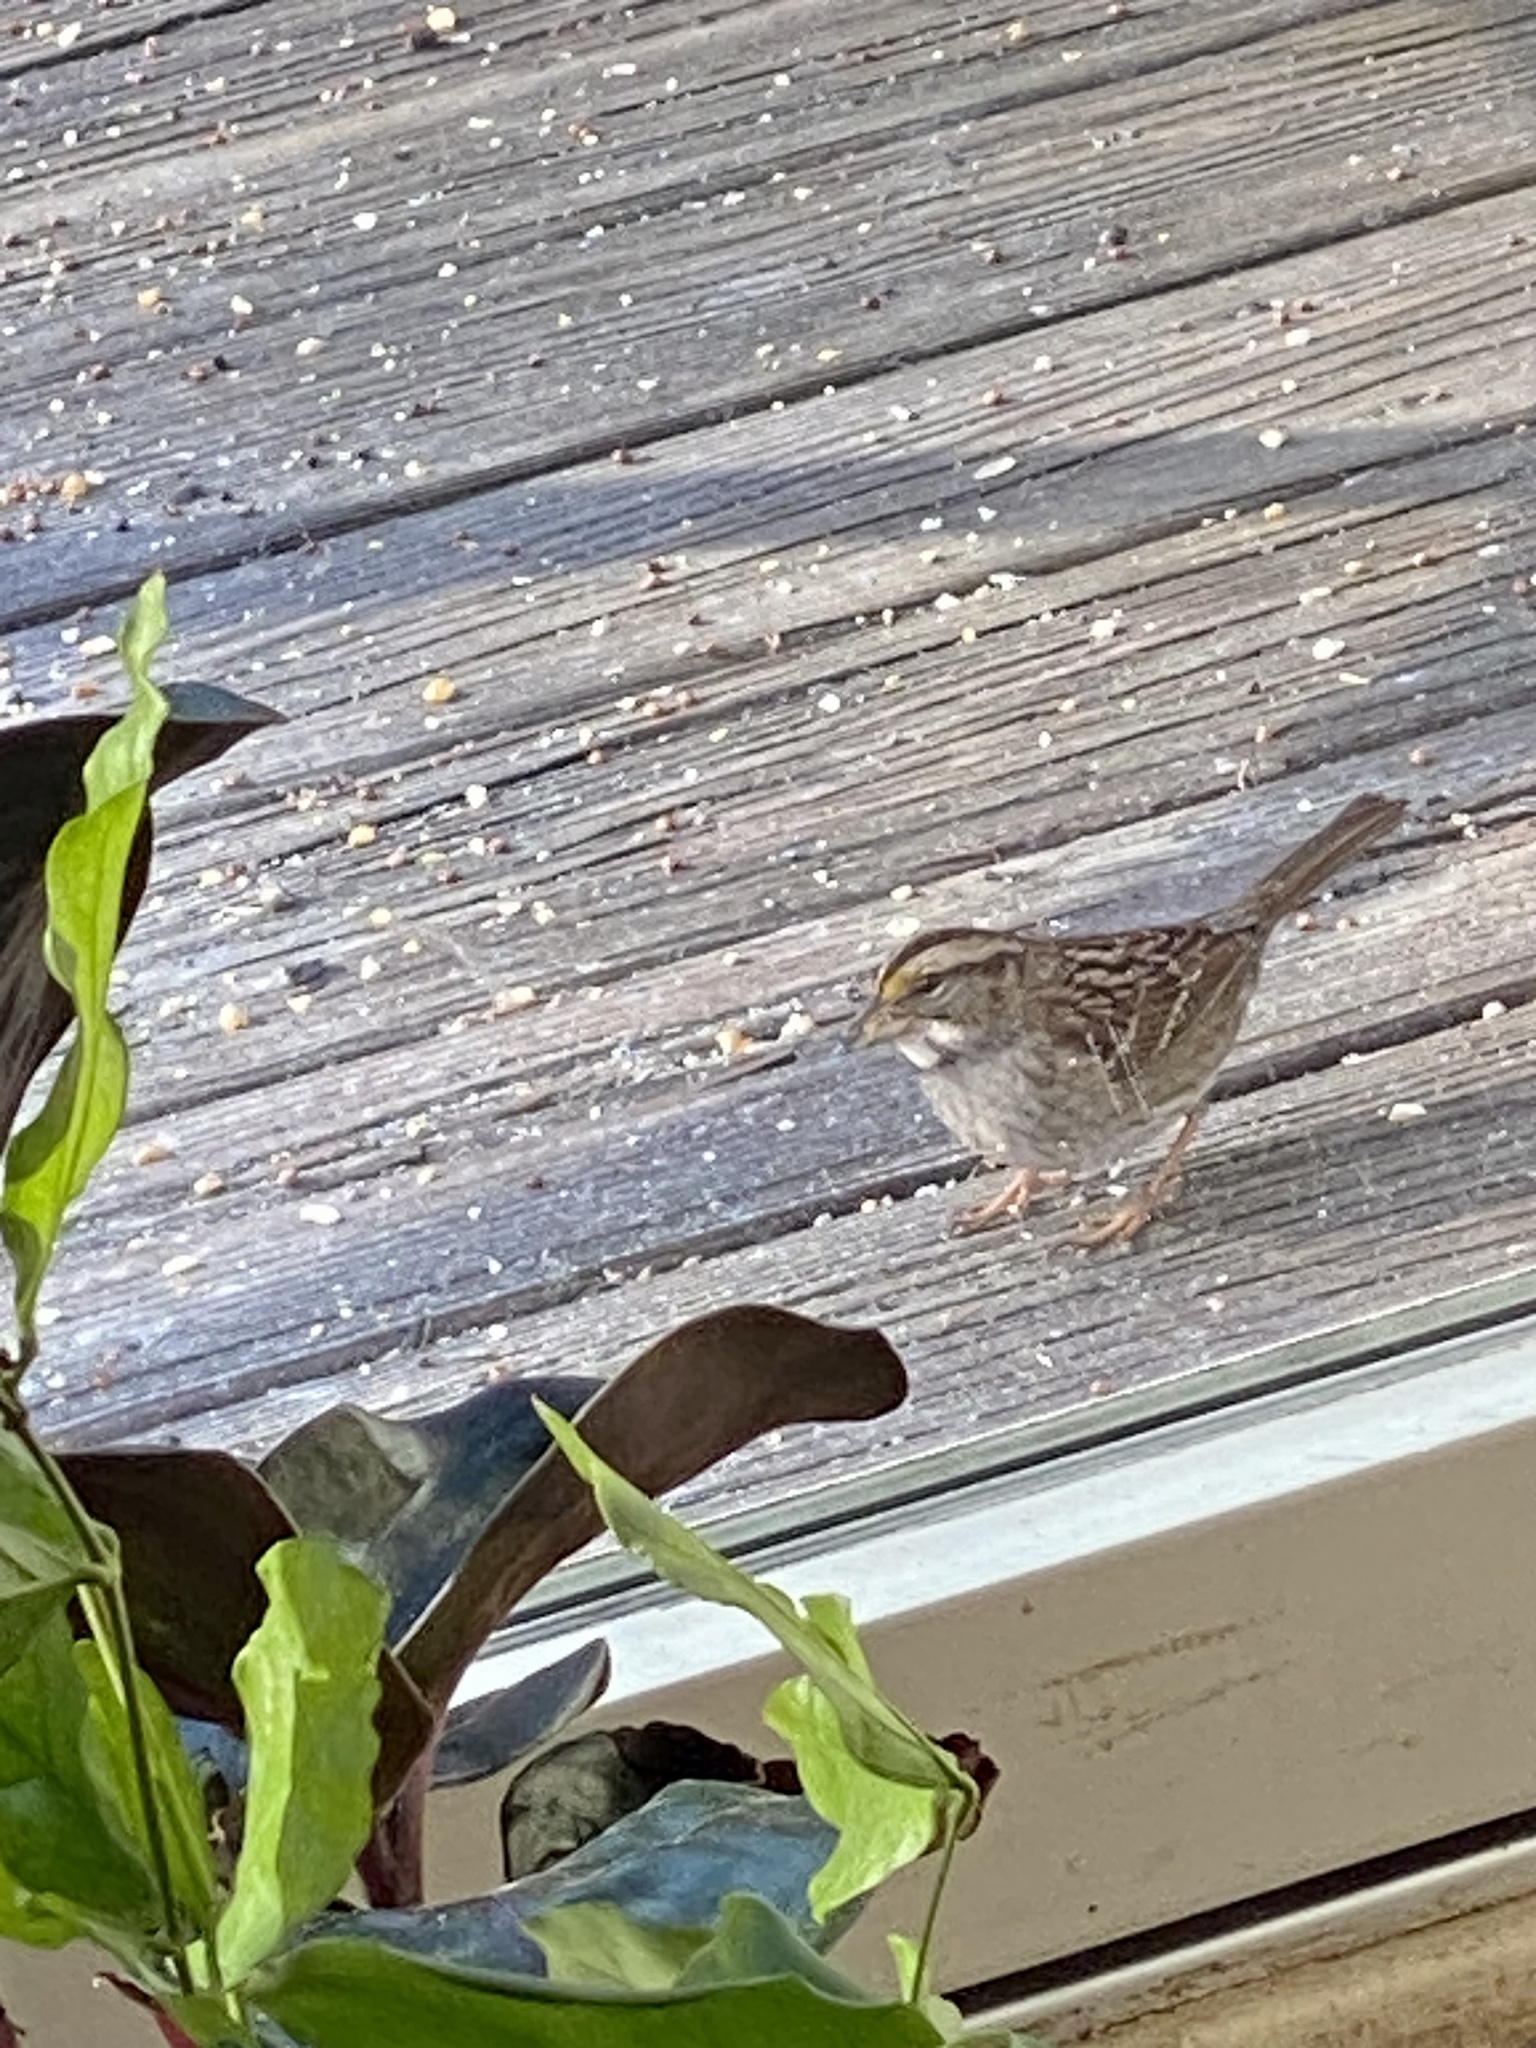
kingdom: Animalia
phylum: Chordata
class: Aves
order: Passeriformes
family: Passerellidae
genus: Zonotrichia
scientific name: Zonotrichia albicollis
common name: White-throated sparrow
